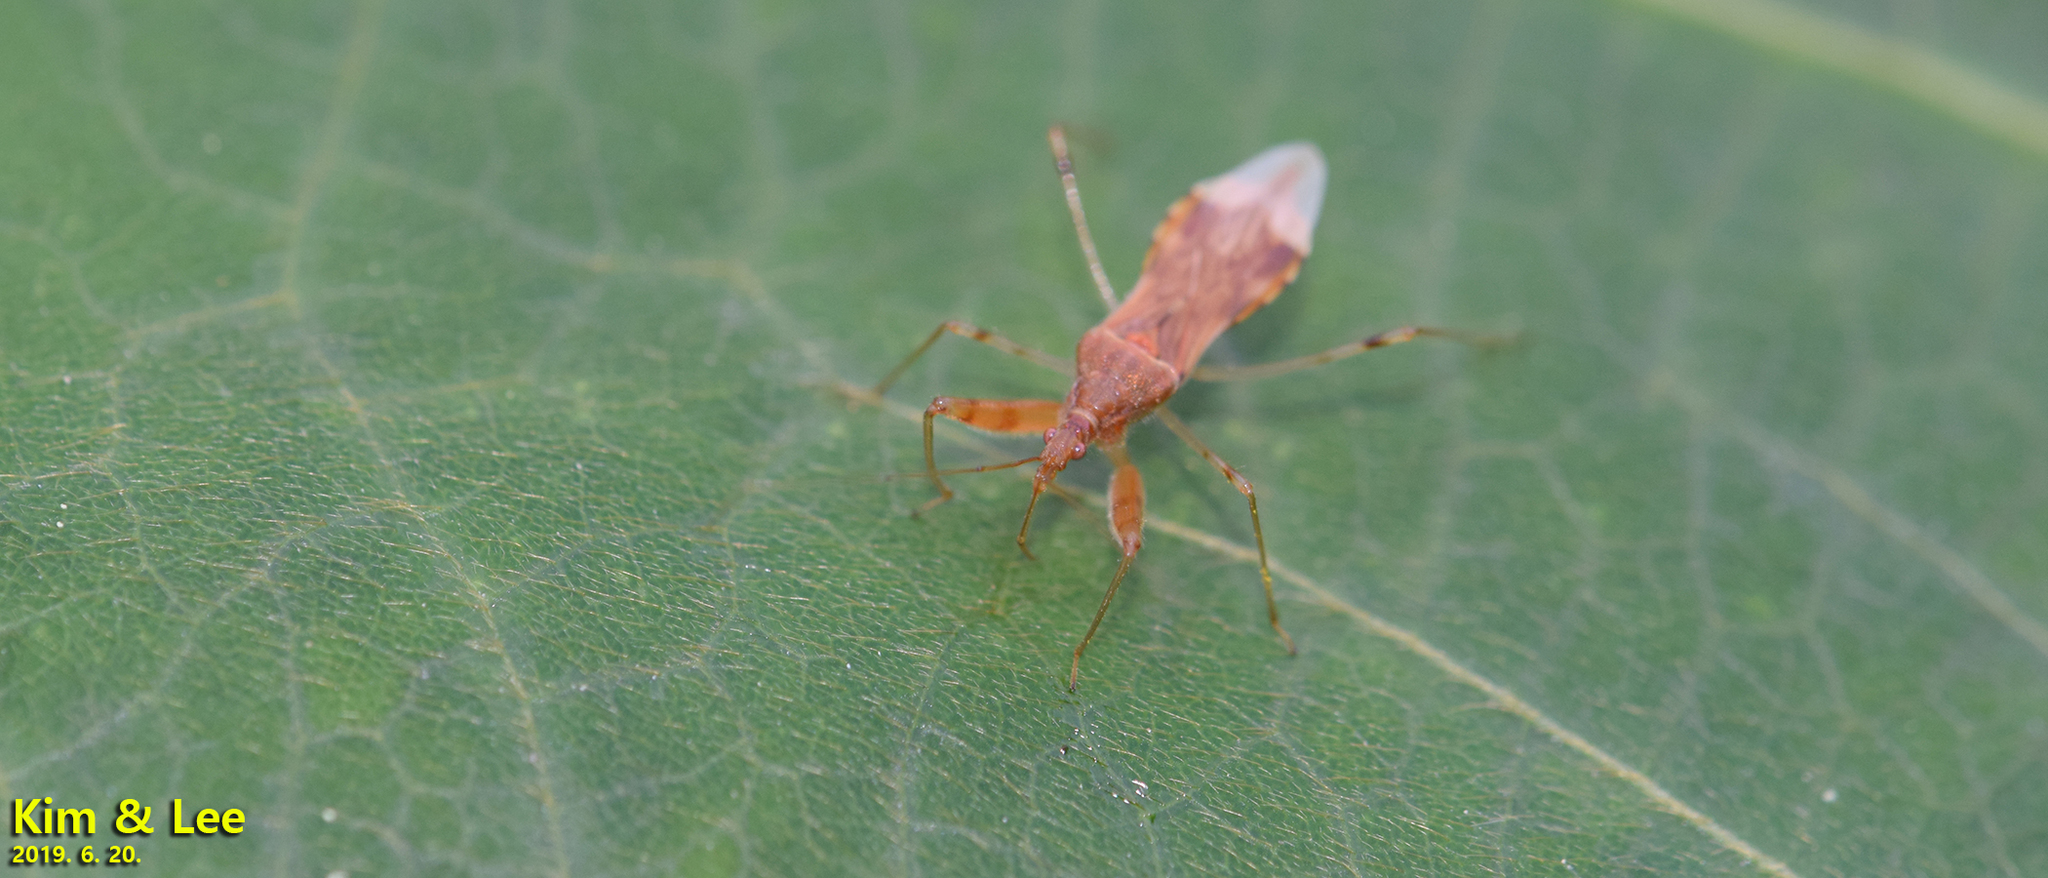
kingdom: Animalia
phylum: Arthropoda
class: Insecta
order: Hemiptera
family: Nabidae
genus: Gorpis
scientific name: Gorpis
